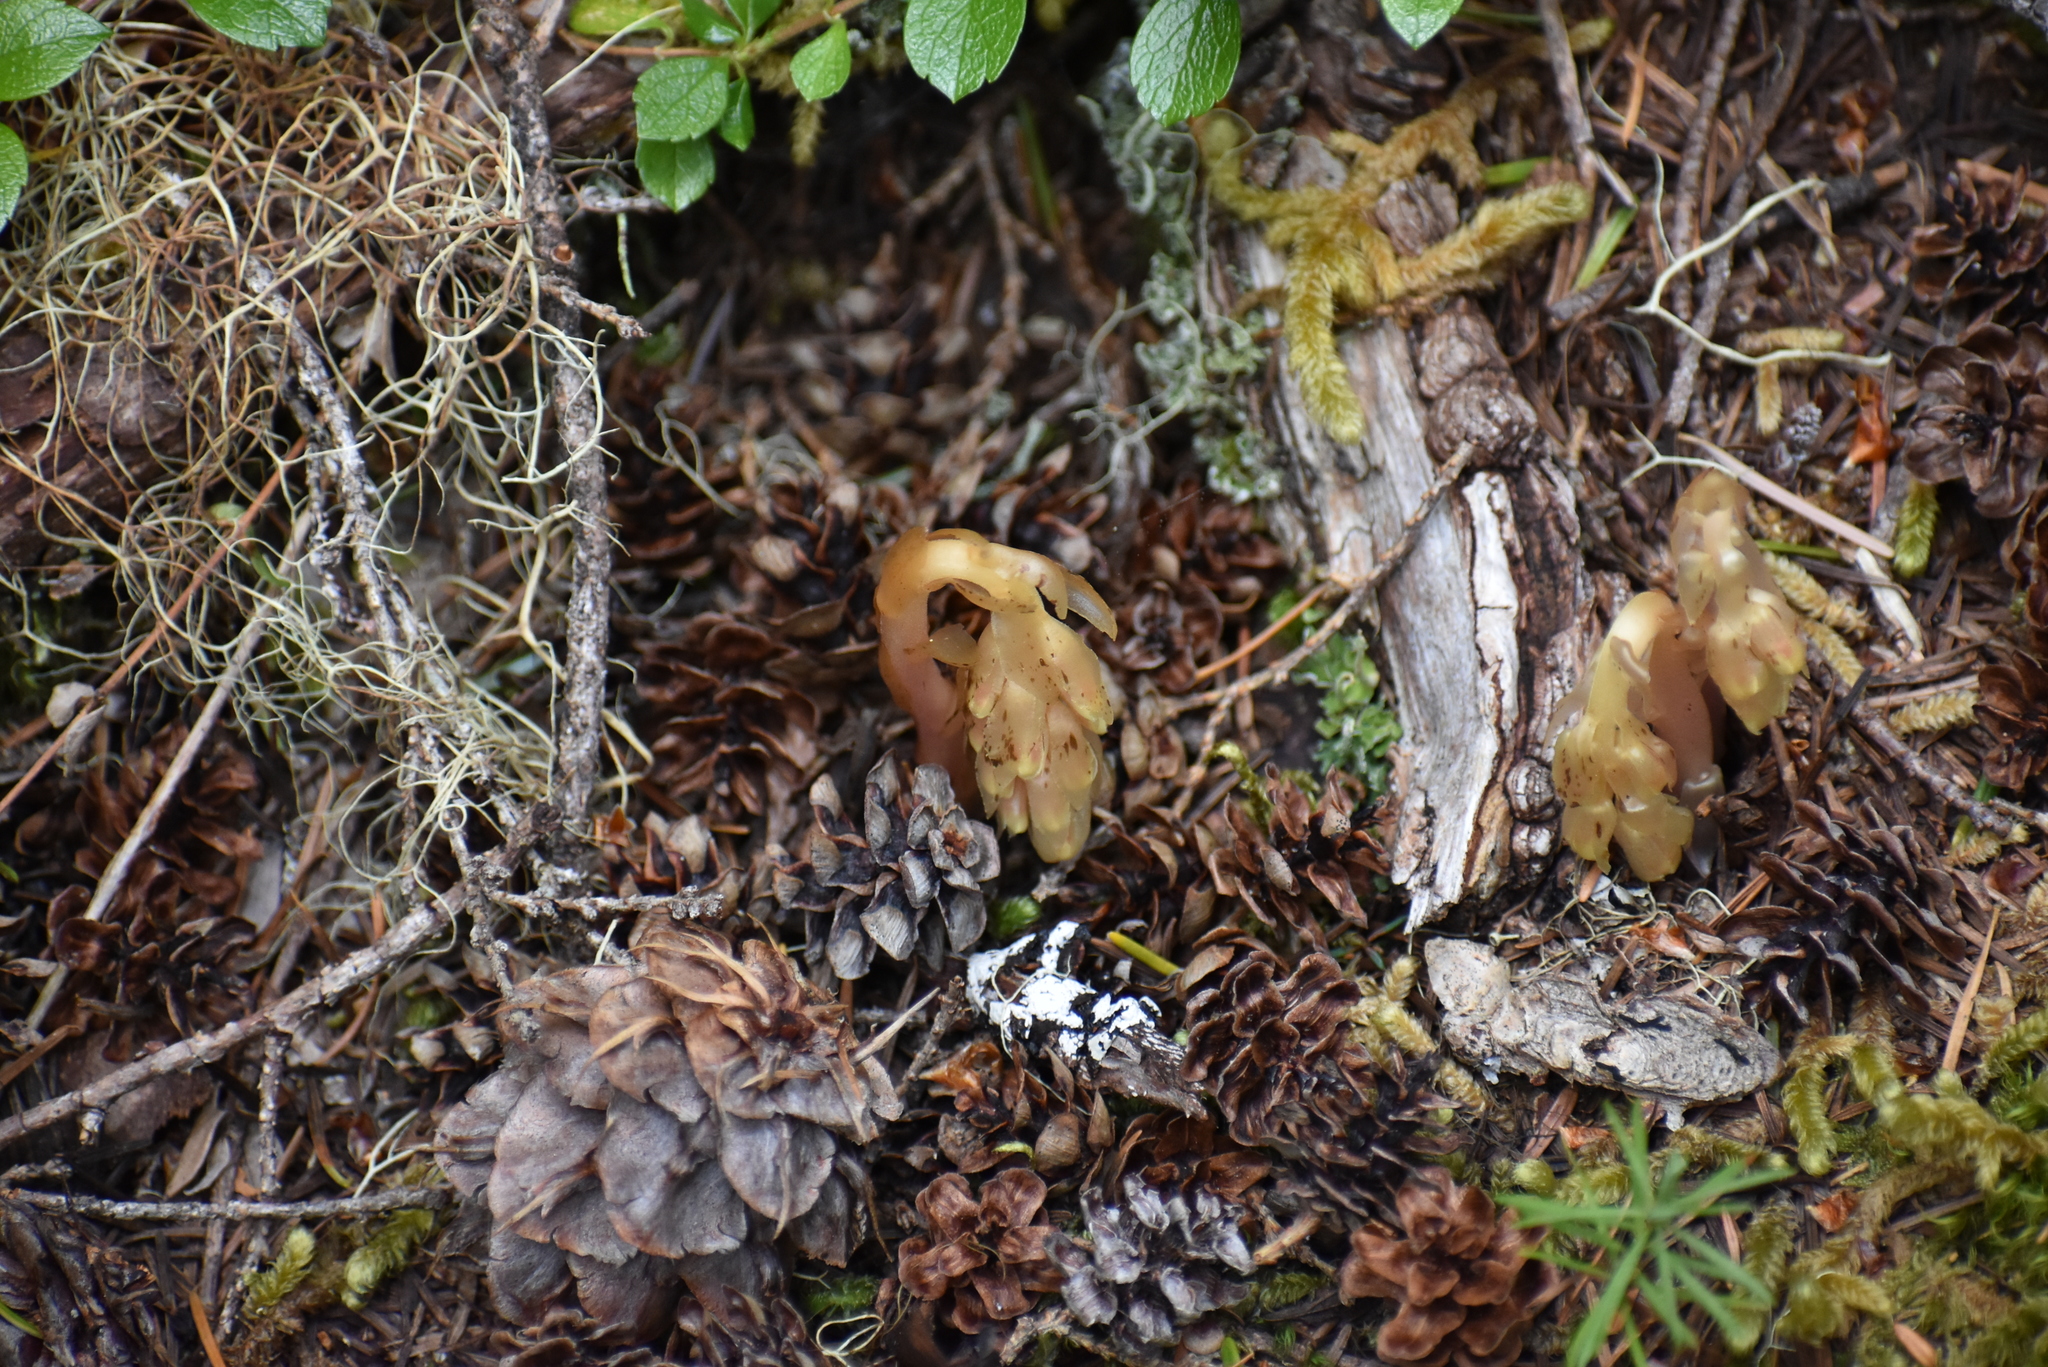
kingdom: Plantae
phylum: Tracheophyta
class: Magnoliopsida
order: Ericales
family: Ericaceae
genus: Hypopitys
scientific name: Hypopitys monotropa
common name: Yellow bird's-nest
